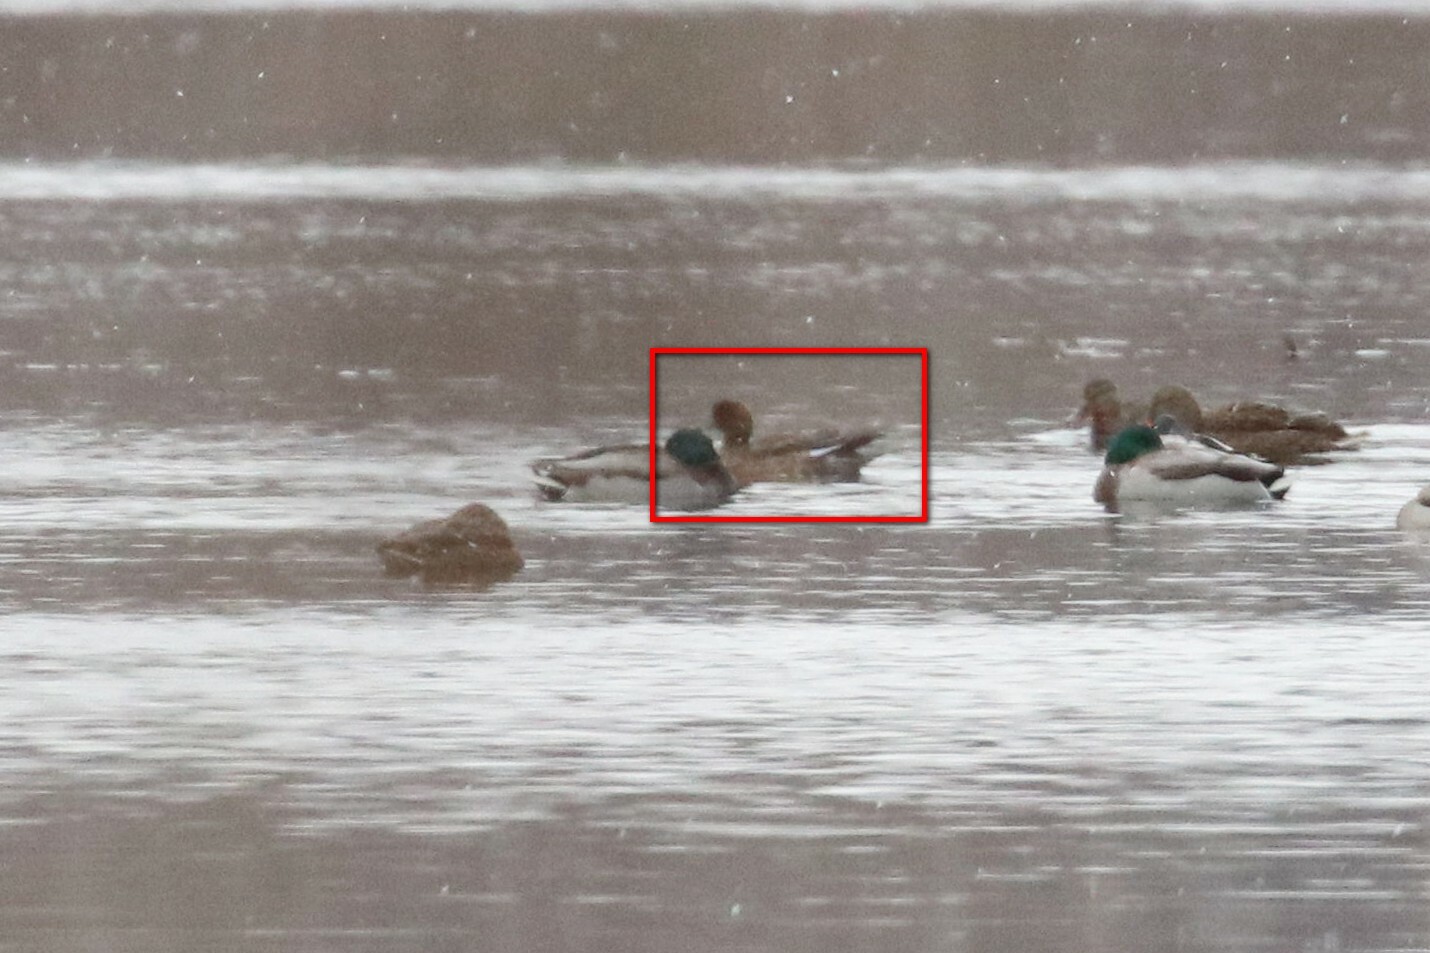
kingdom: Animalia
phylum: Chordata
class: Aves
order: Anseriformes
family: Anatidae
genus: Mareca
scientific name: Mareca penelope
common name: Eurasian wigeon
